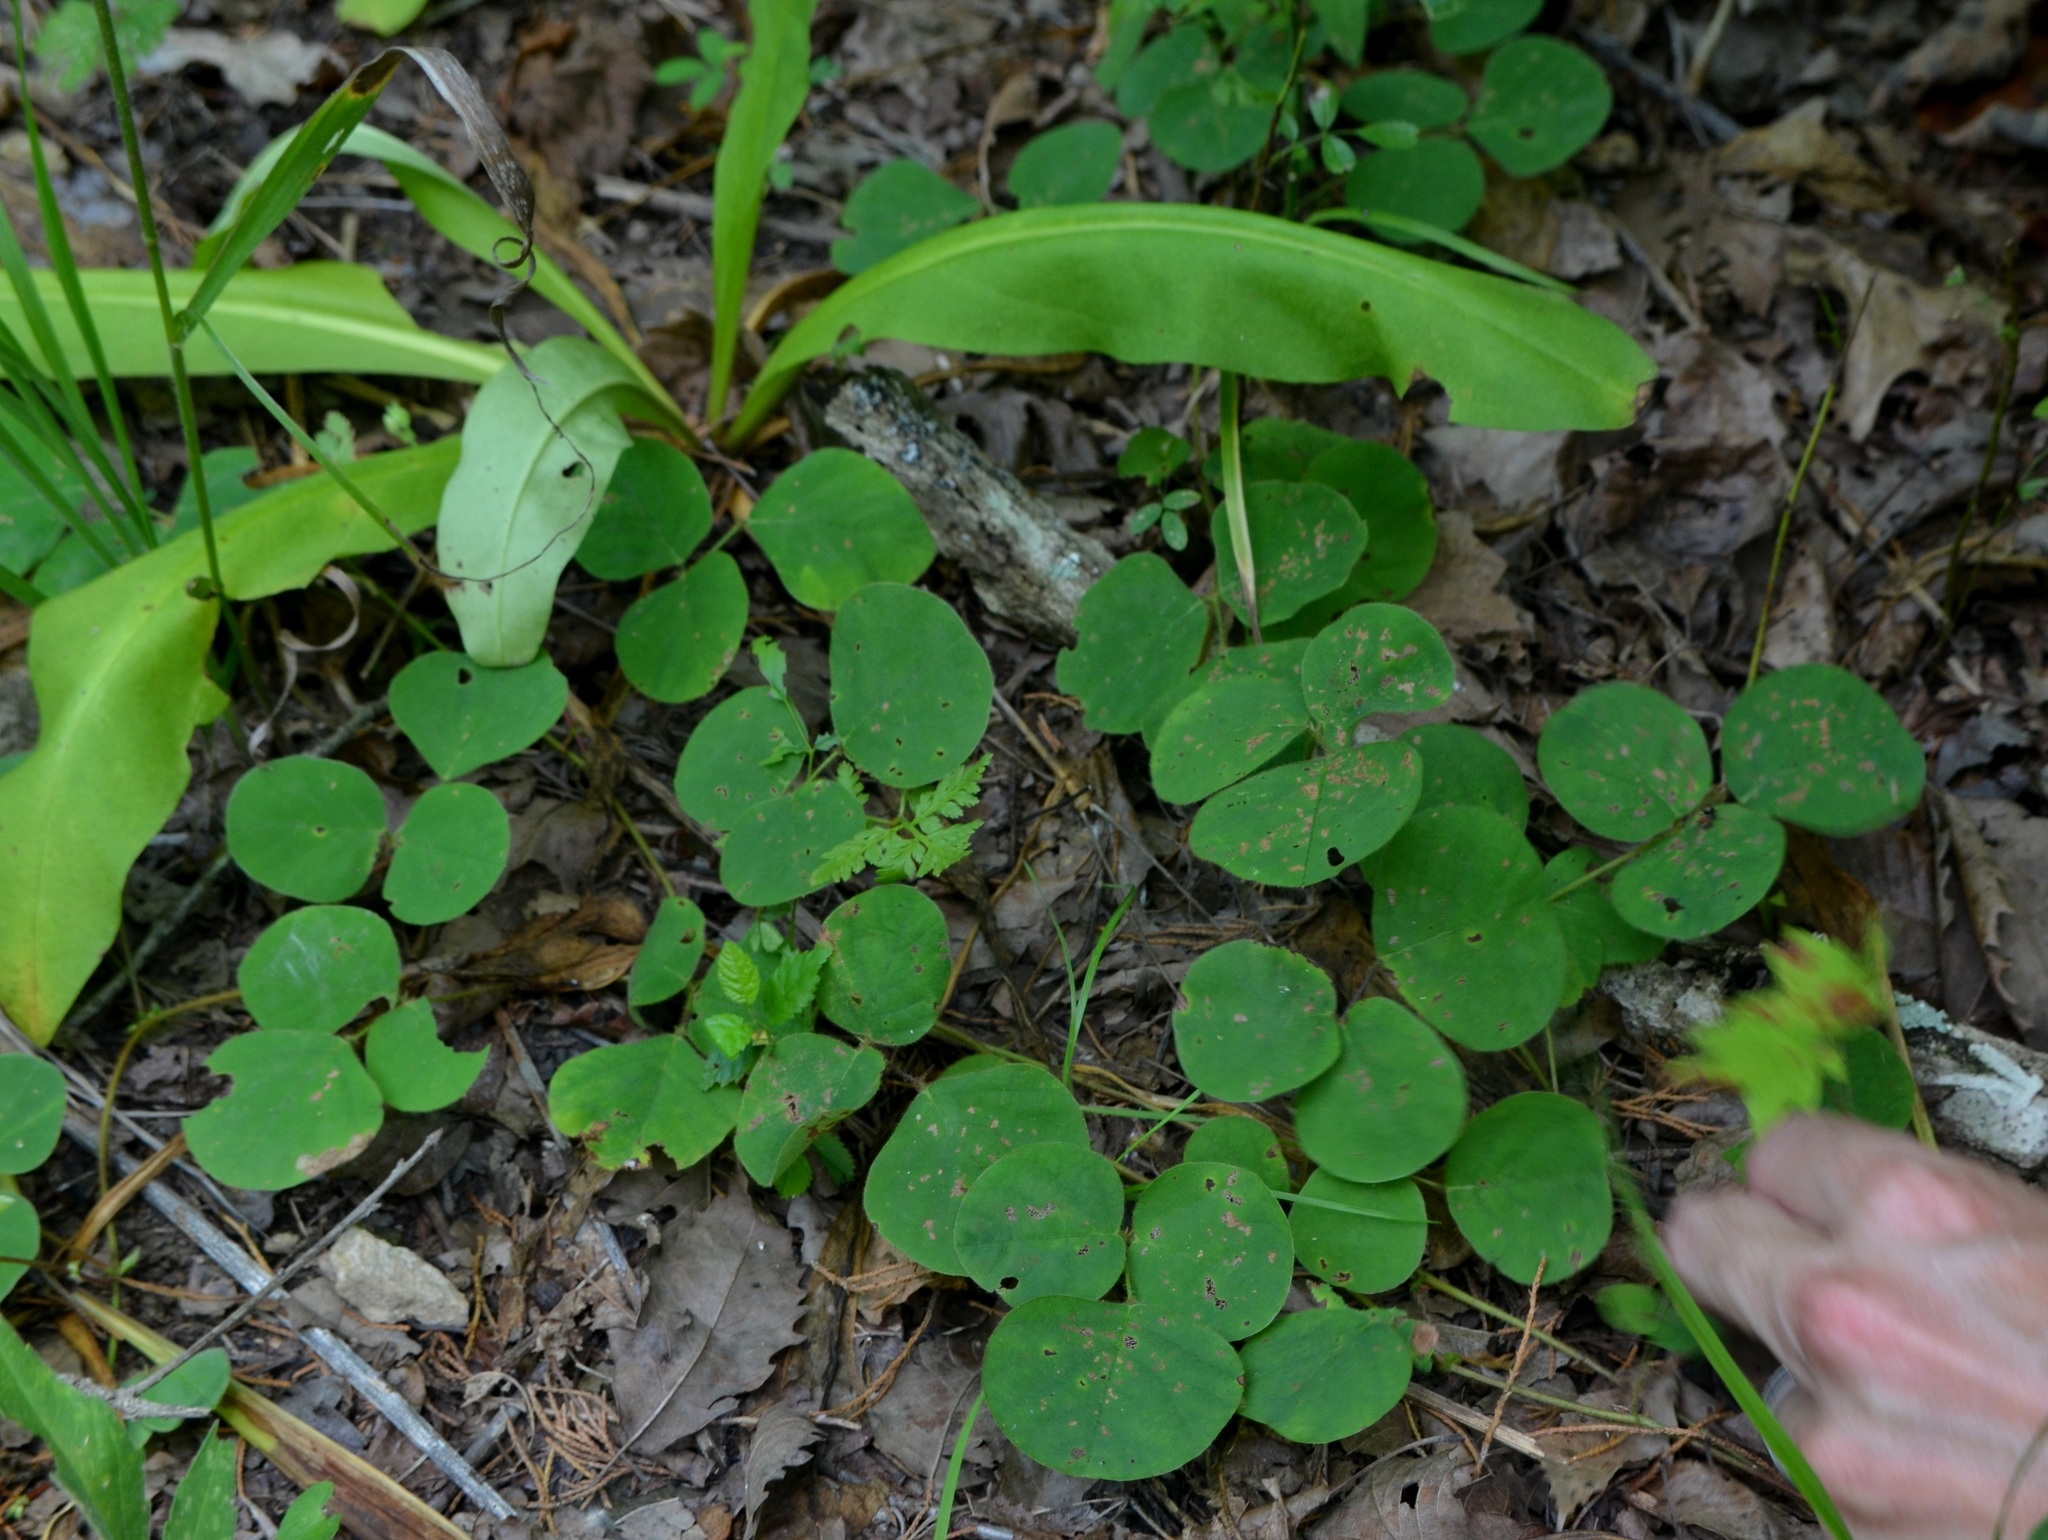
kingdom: Plantae
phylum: Tracheophyta
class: Magnoliopsida
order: Fabales
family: Fabaceae
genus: Desmodium
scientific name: Desmodium rotundifolium
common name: Dollarleaf
